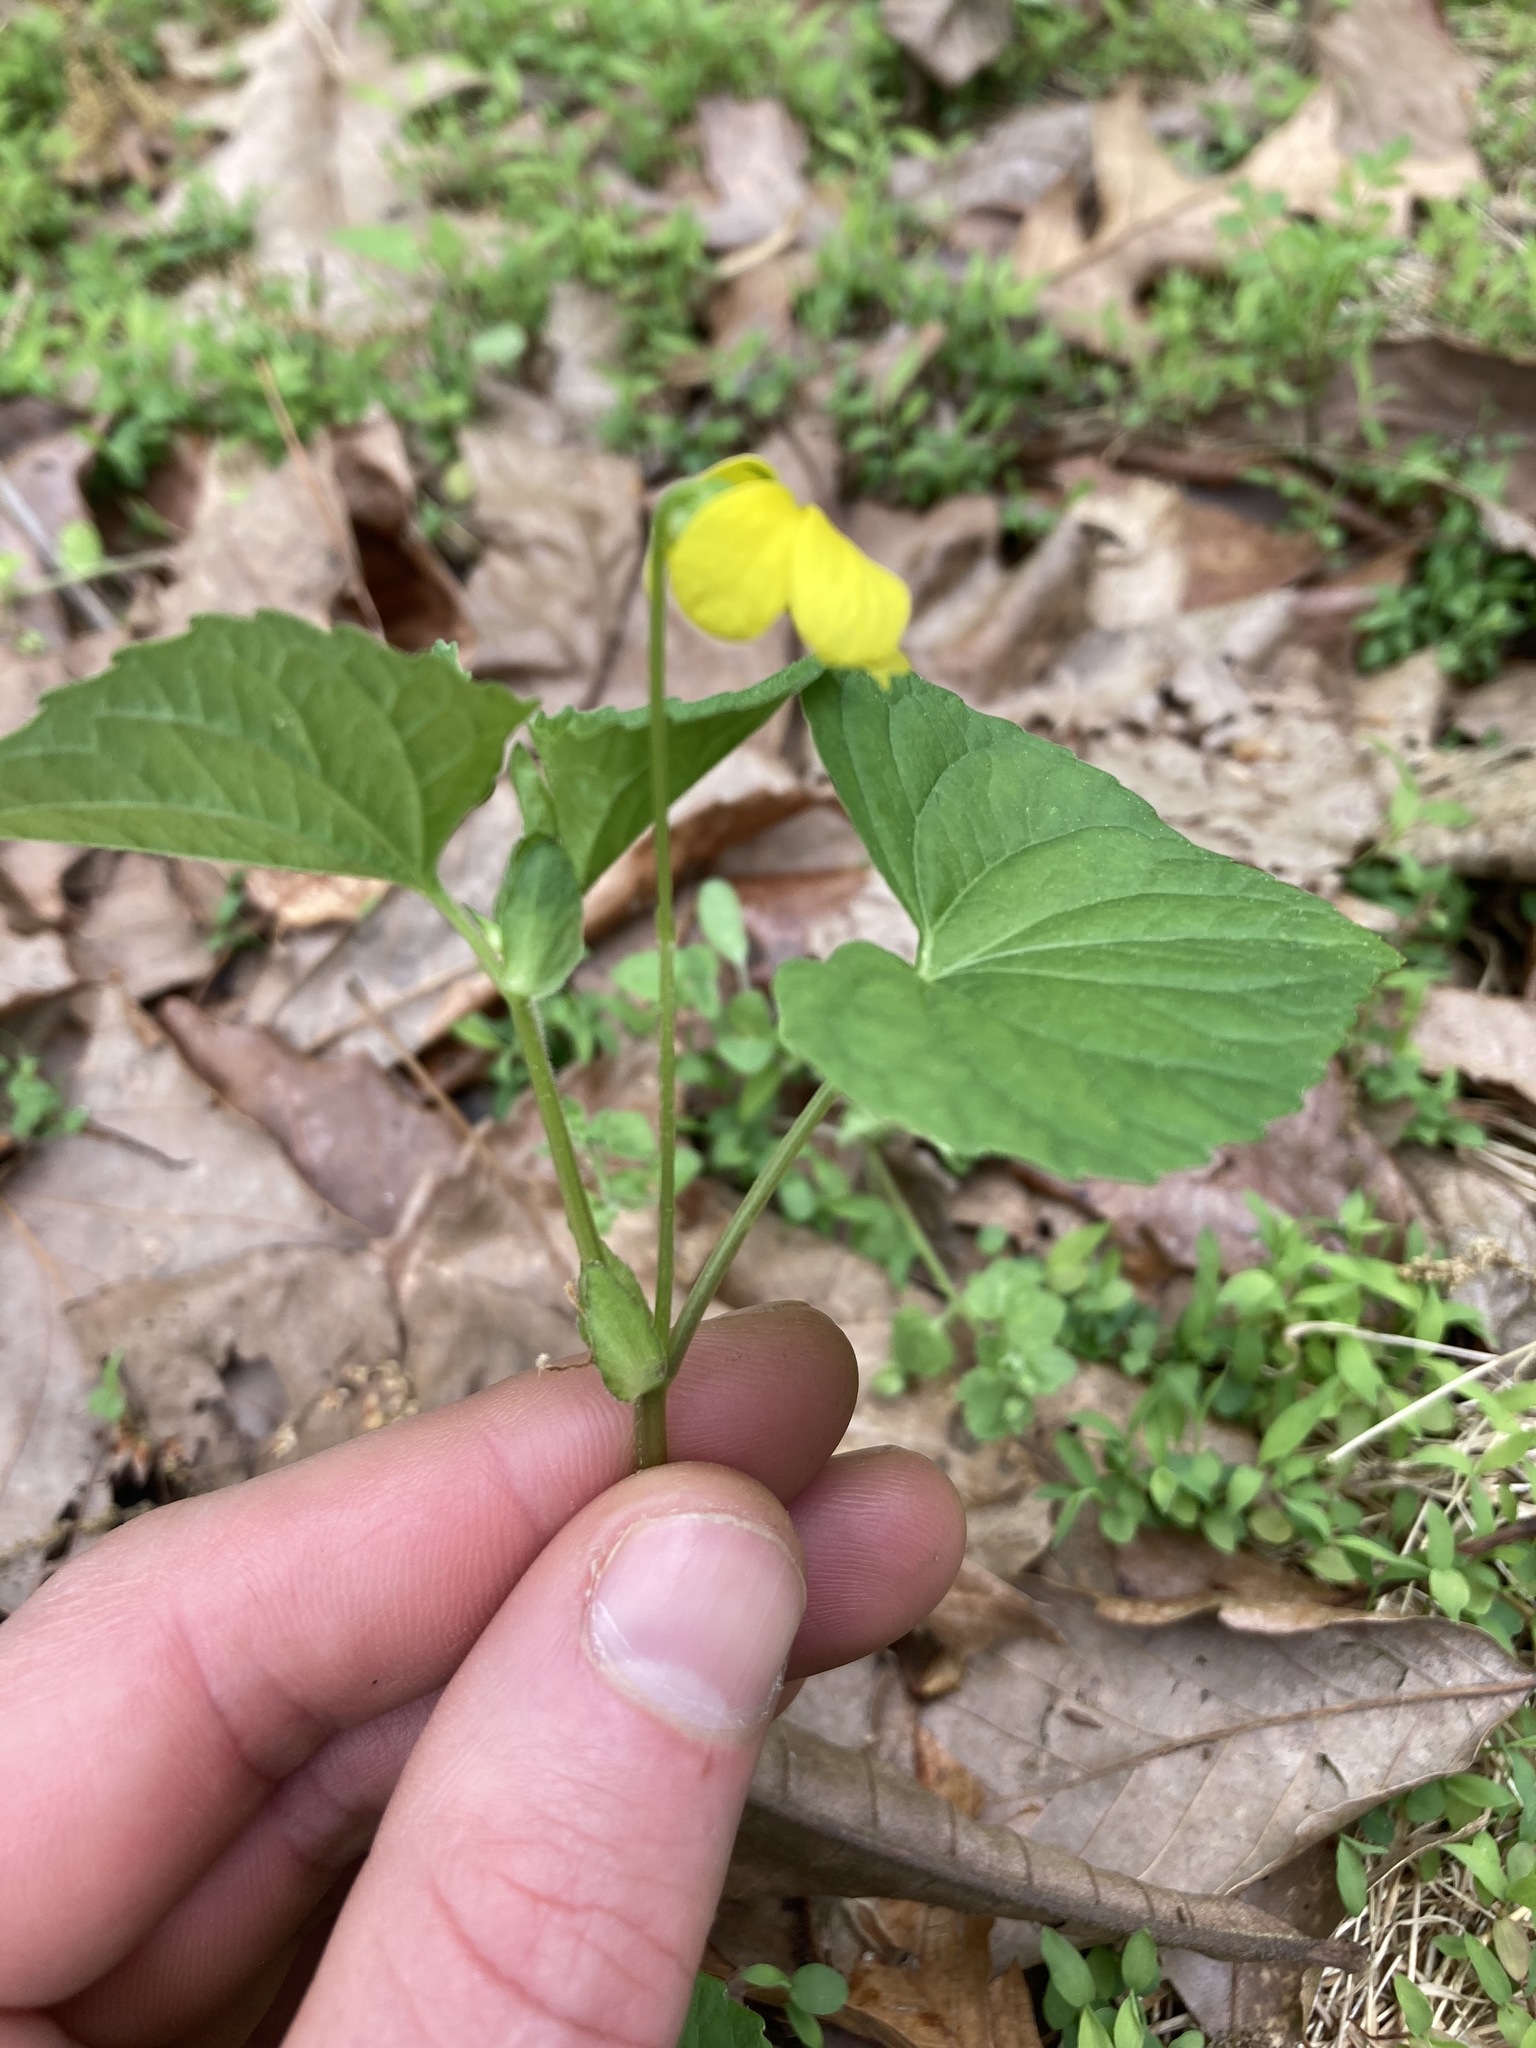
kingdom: Plantae
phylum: Tracheophyta
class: Magnoliopsida
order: Malpighiales
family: Violaceae
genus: Viola
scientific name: Viola eriocarpa
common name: Smooth yellow violet
